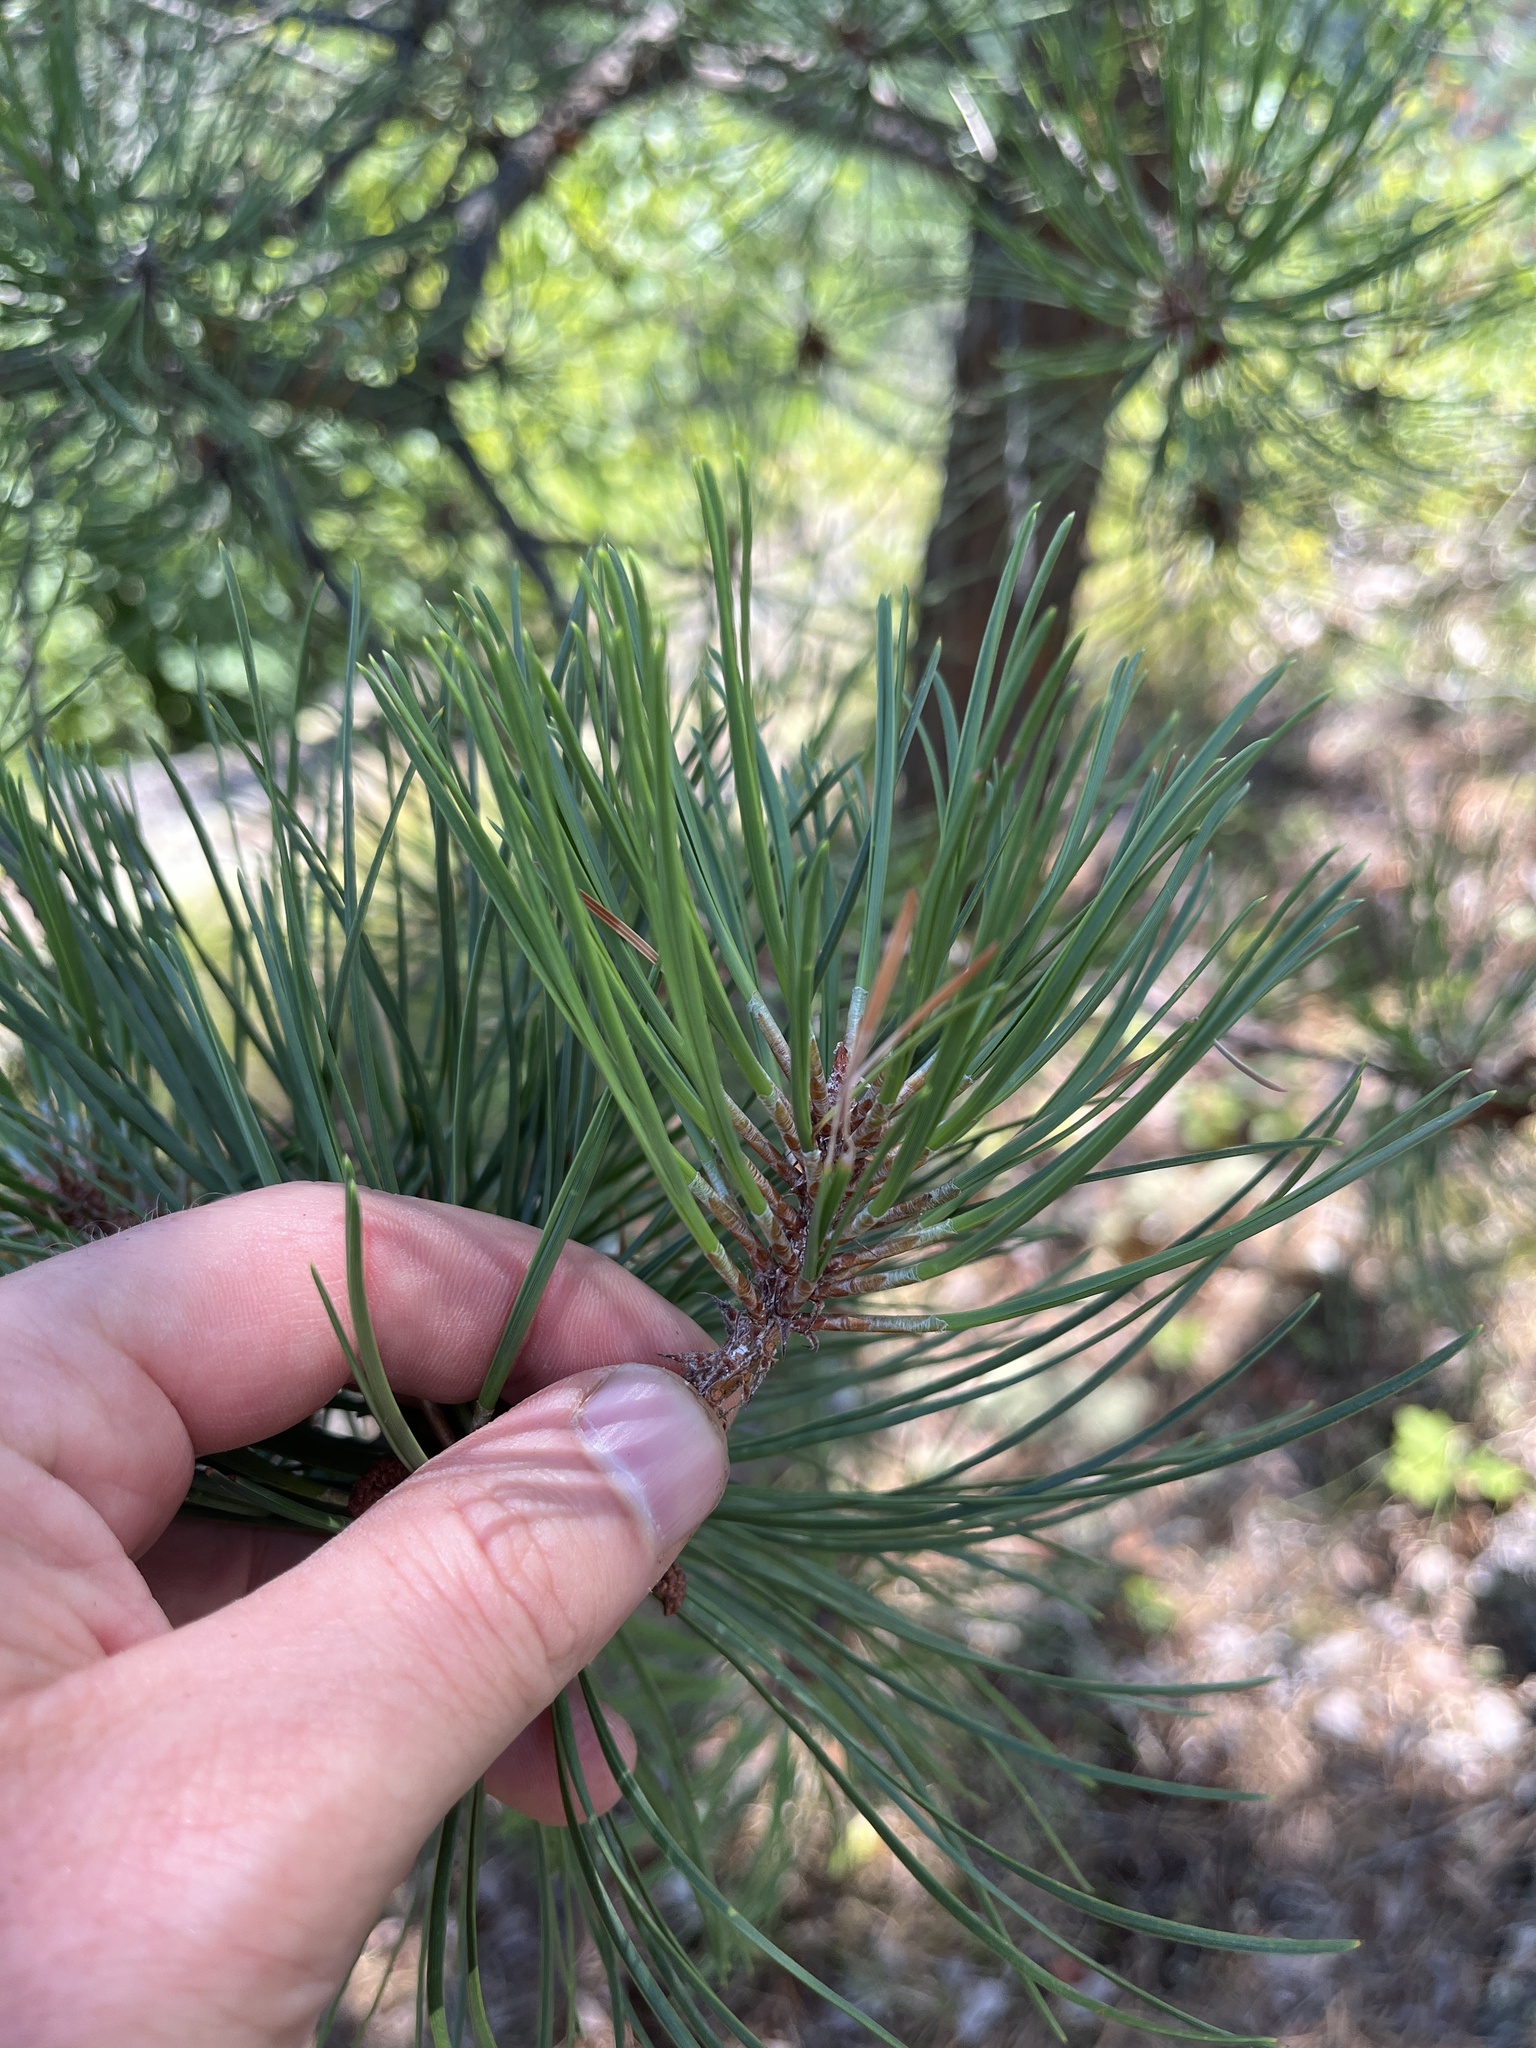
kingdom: Plantae
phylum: Tracheophyta
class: Pinopsida
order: Pinales
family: Pinaceae
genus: Pinus
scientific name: Pinus rigida
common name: Pitch pine
